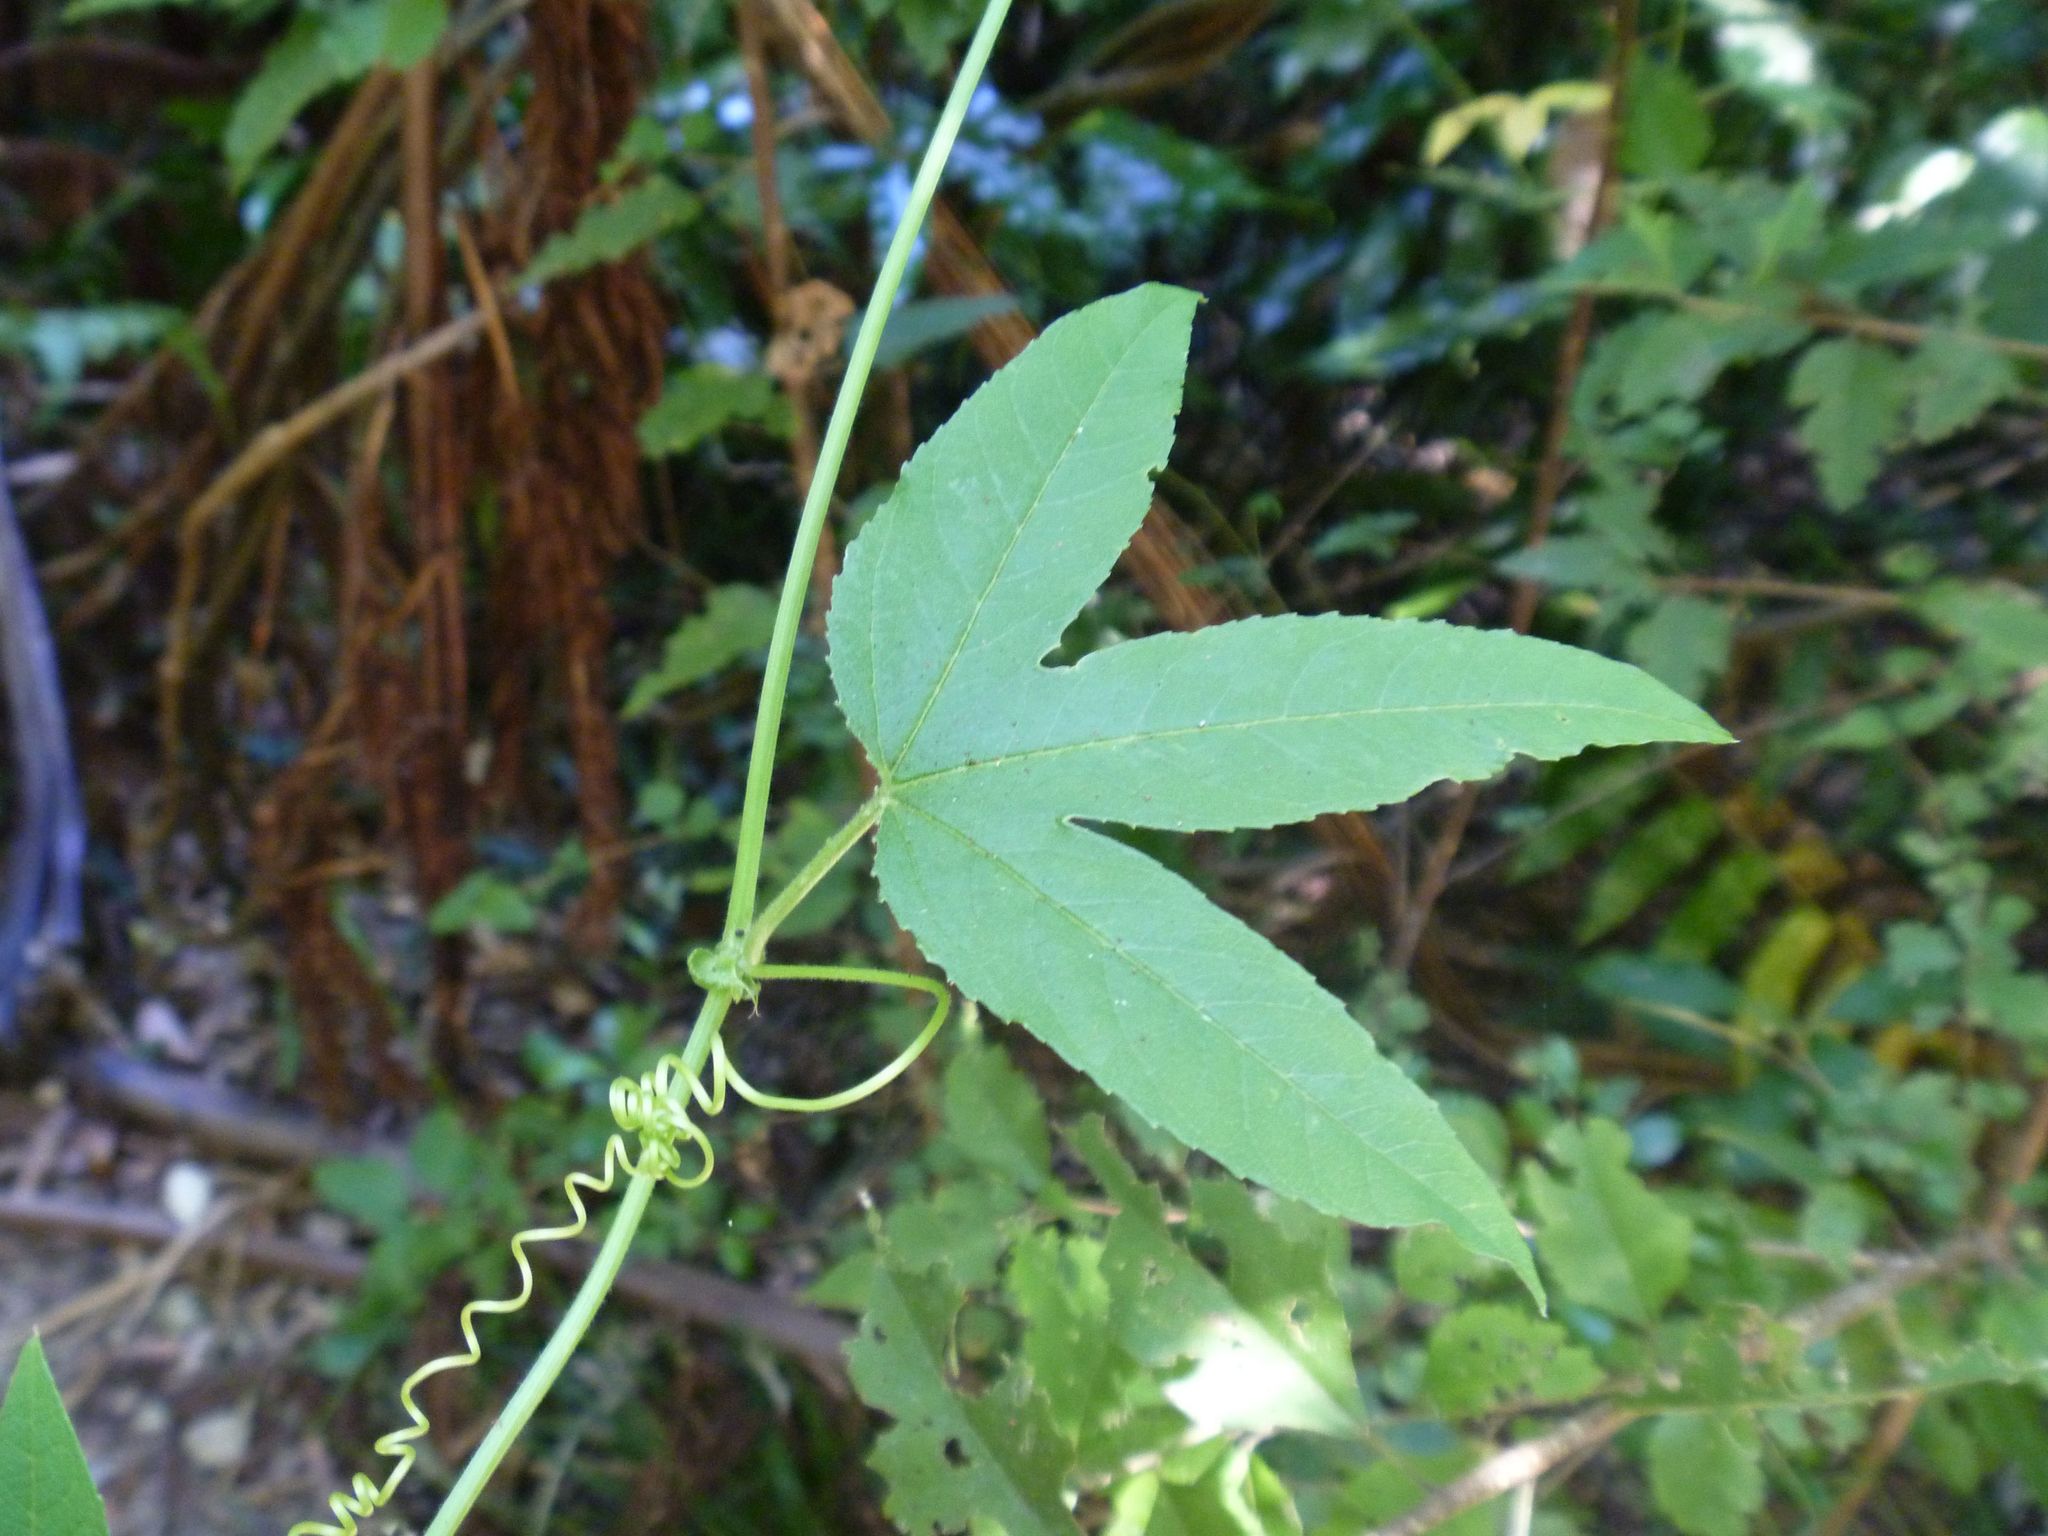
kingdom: Plantae
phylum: Tracheophyta
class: Magnoliopsida
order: Malpighiales
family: Passifloraceae
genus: Passiflora
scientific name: Passiflora tripartita
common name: Banana poka
